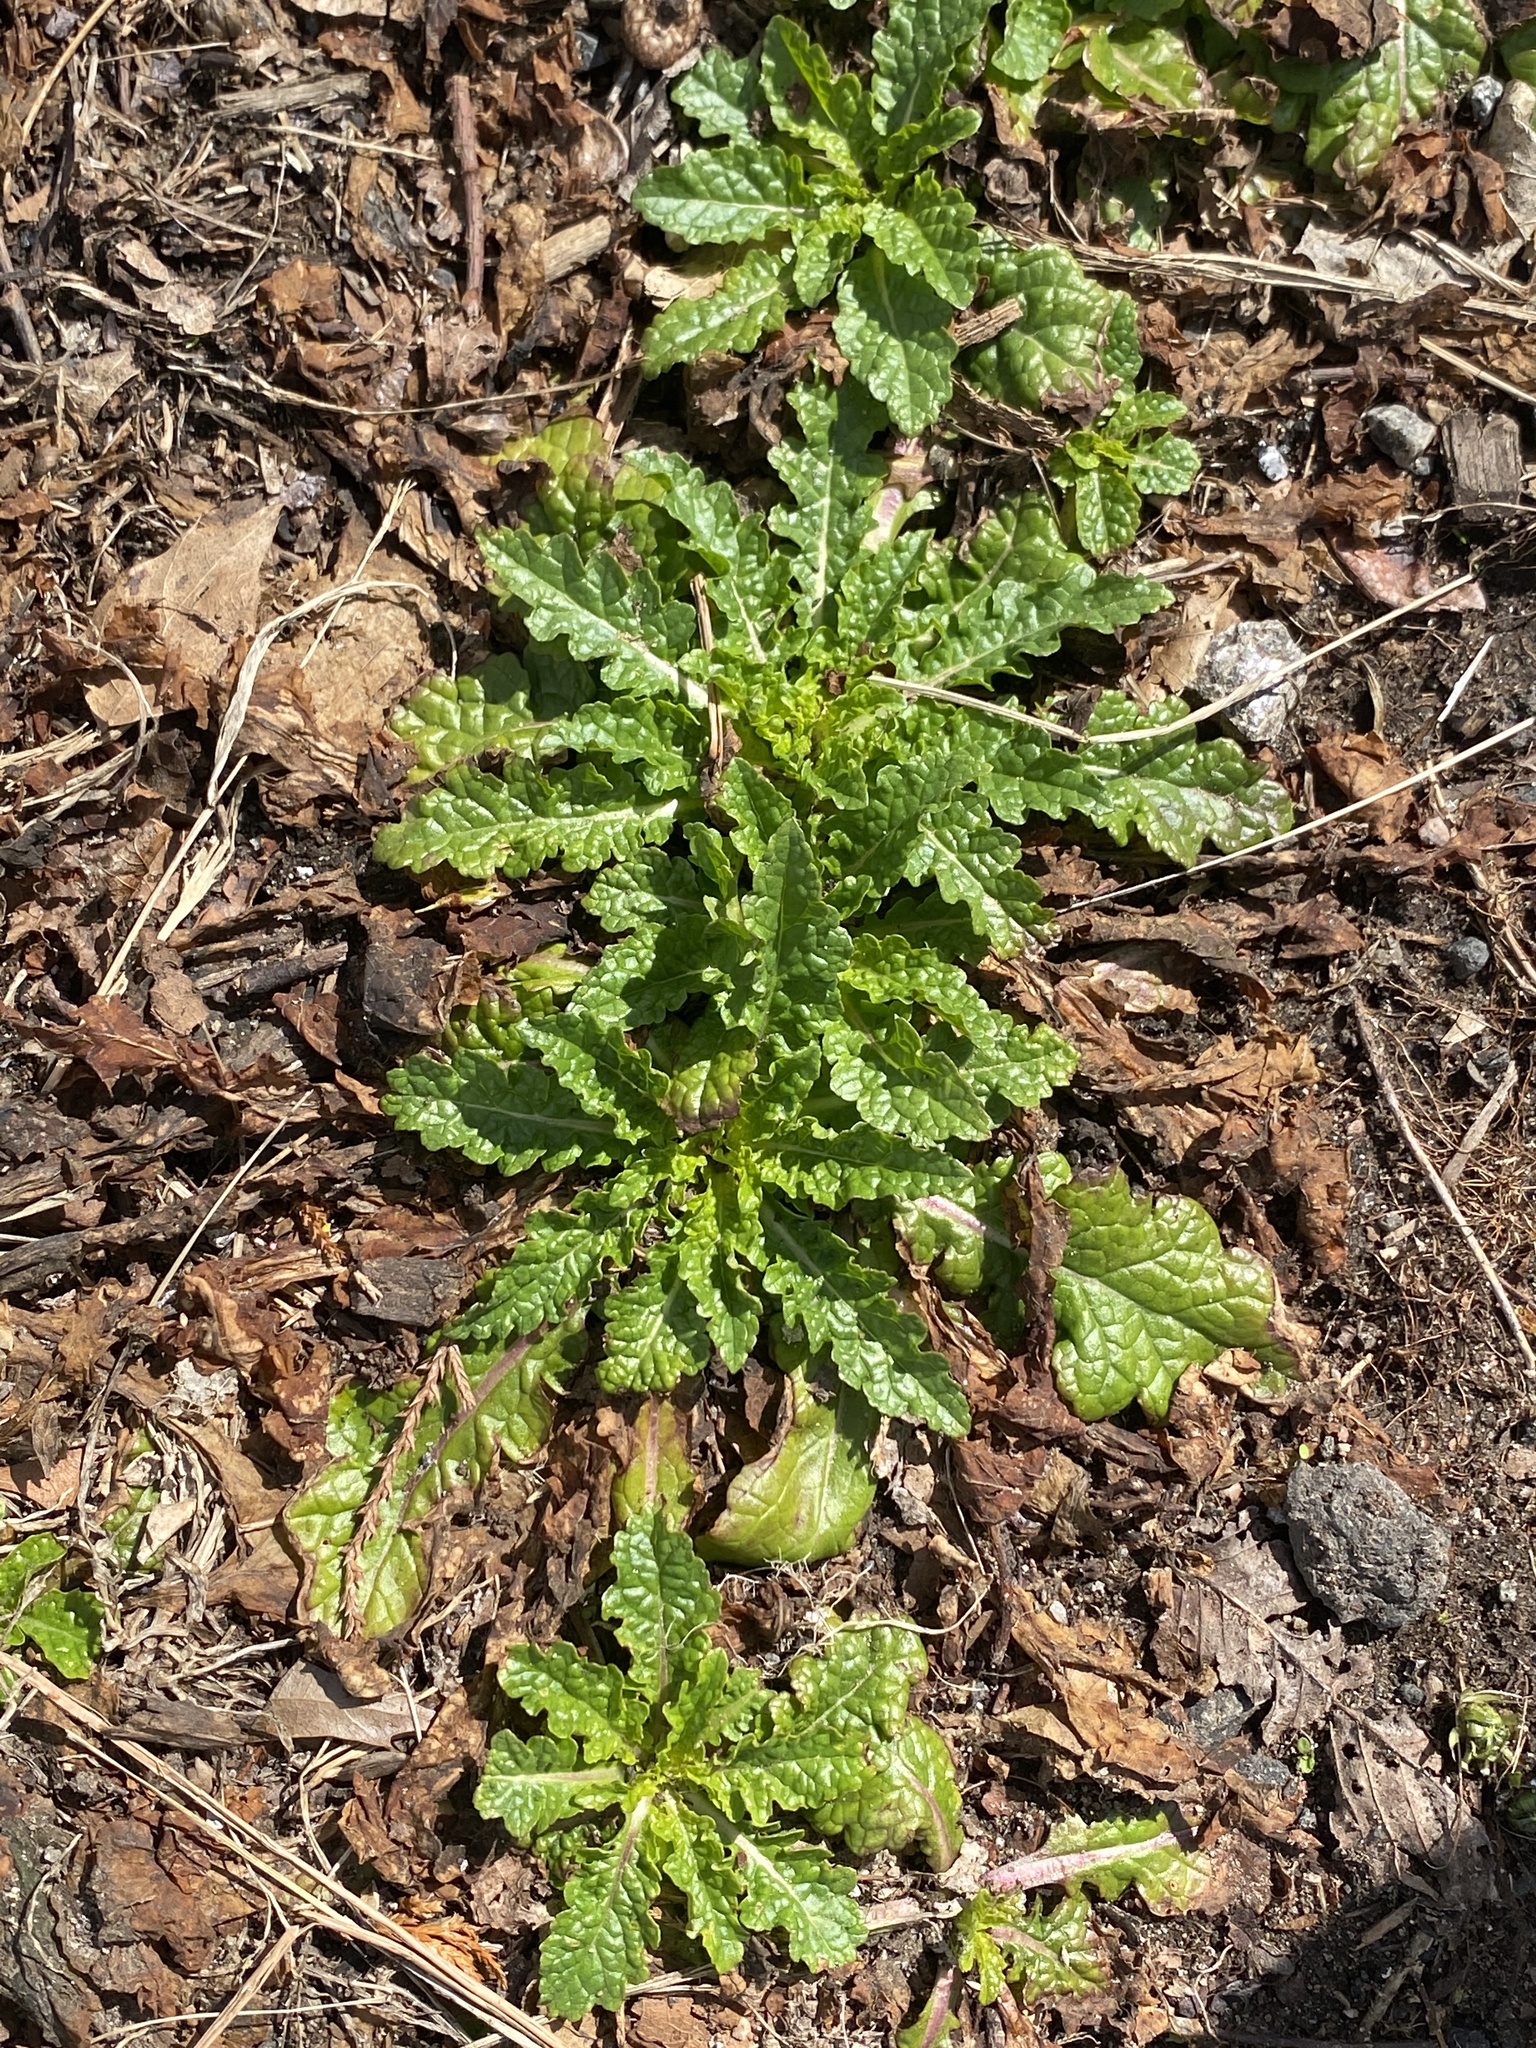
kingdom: Plantae
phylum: Tracheophyta
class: Magnoliopsida
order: Lamiales
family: Scrophulariaceae
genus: Verbascum
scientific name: Verbascum blattaria
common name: Moth mullein
